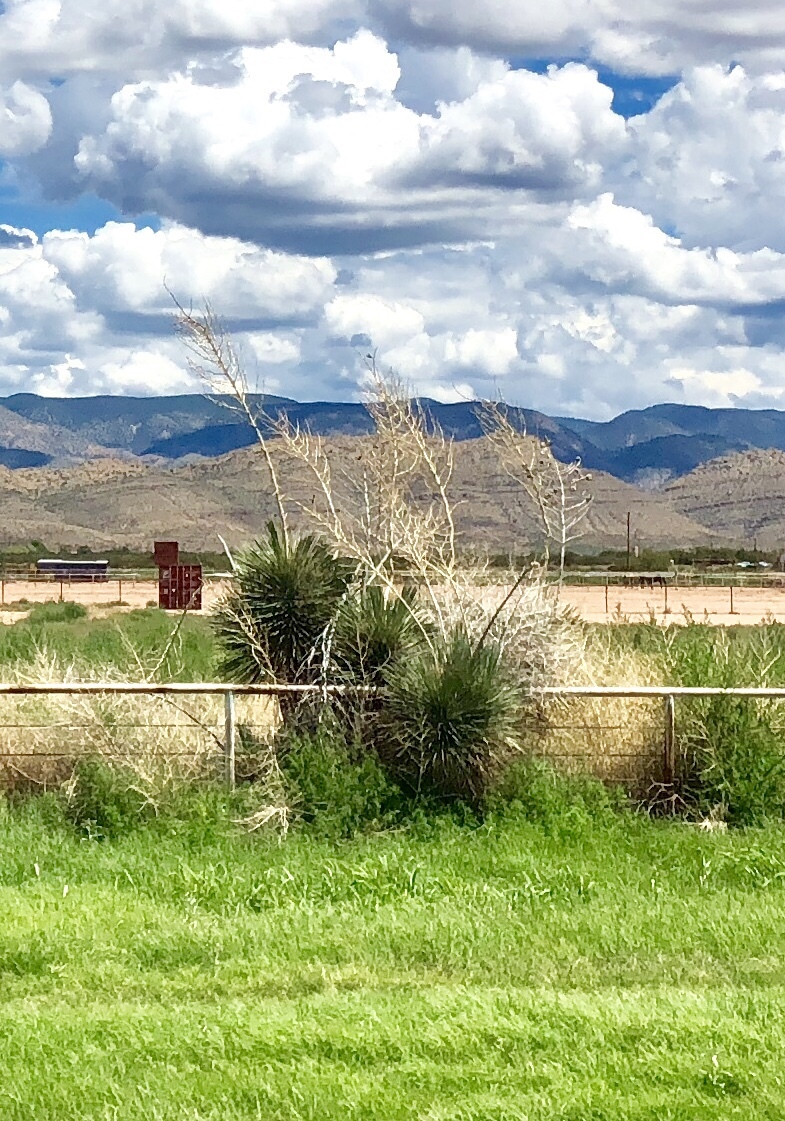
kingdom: Plantae
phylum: Tracheophyta
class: Liliopsida
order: Asparagales
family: Asparagaceae
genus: Yucca
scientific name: Yucca elata
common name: Palmella
